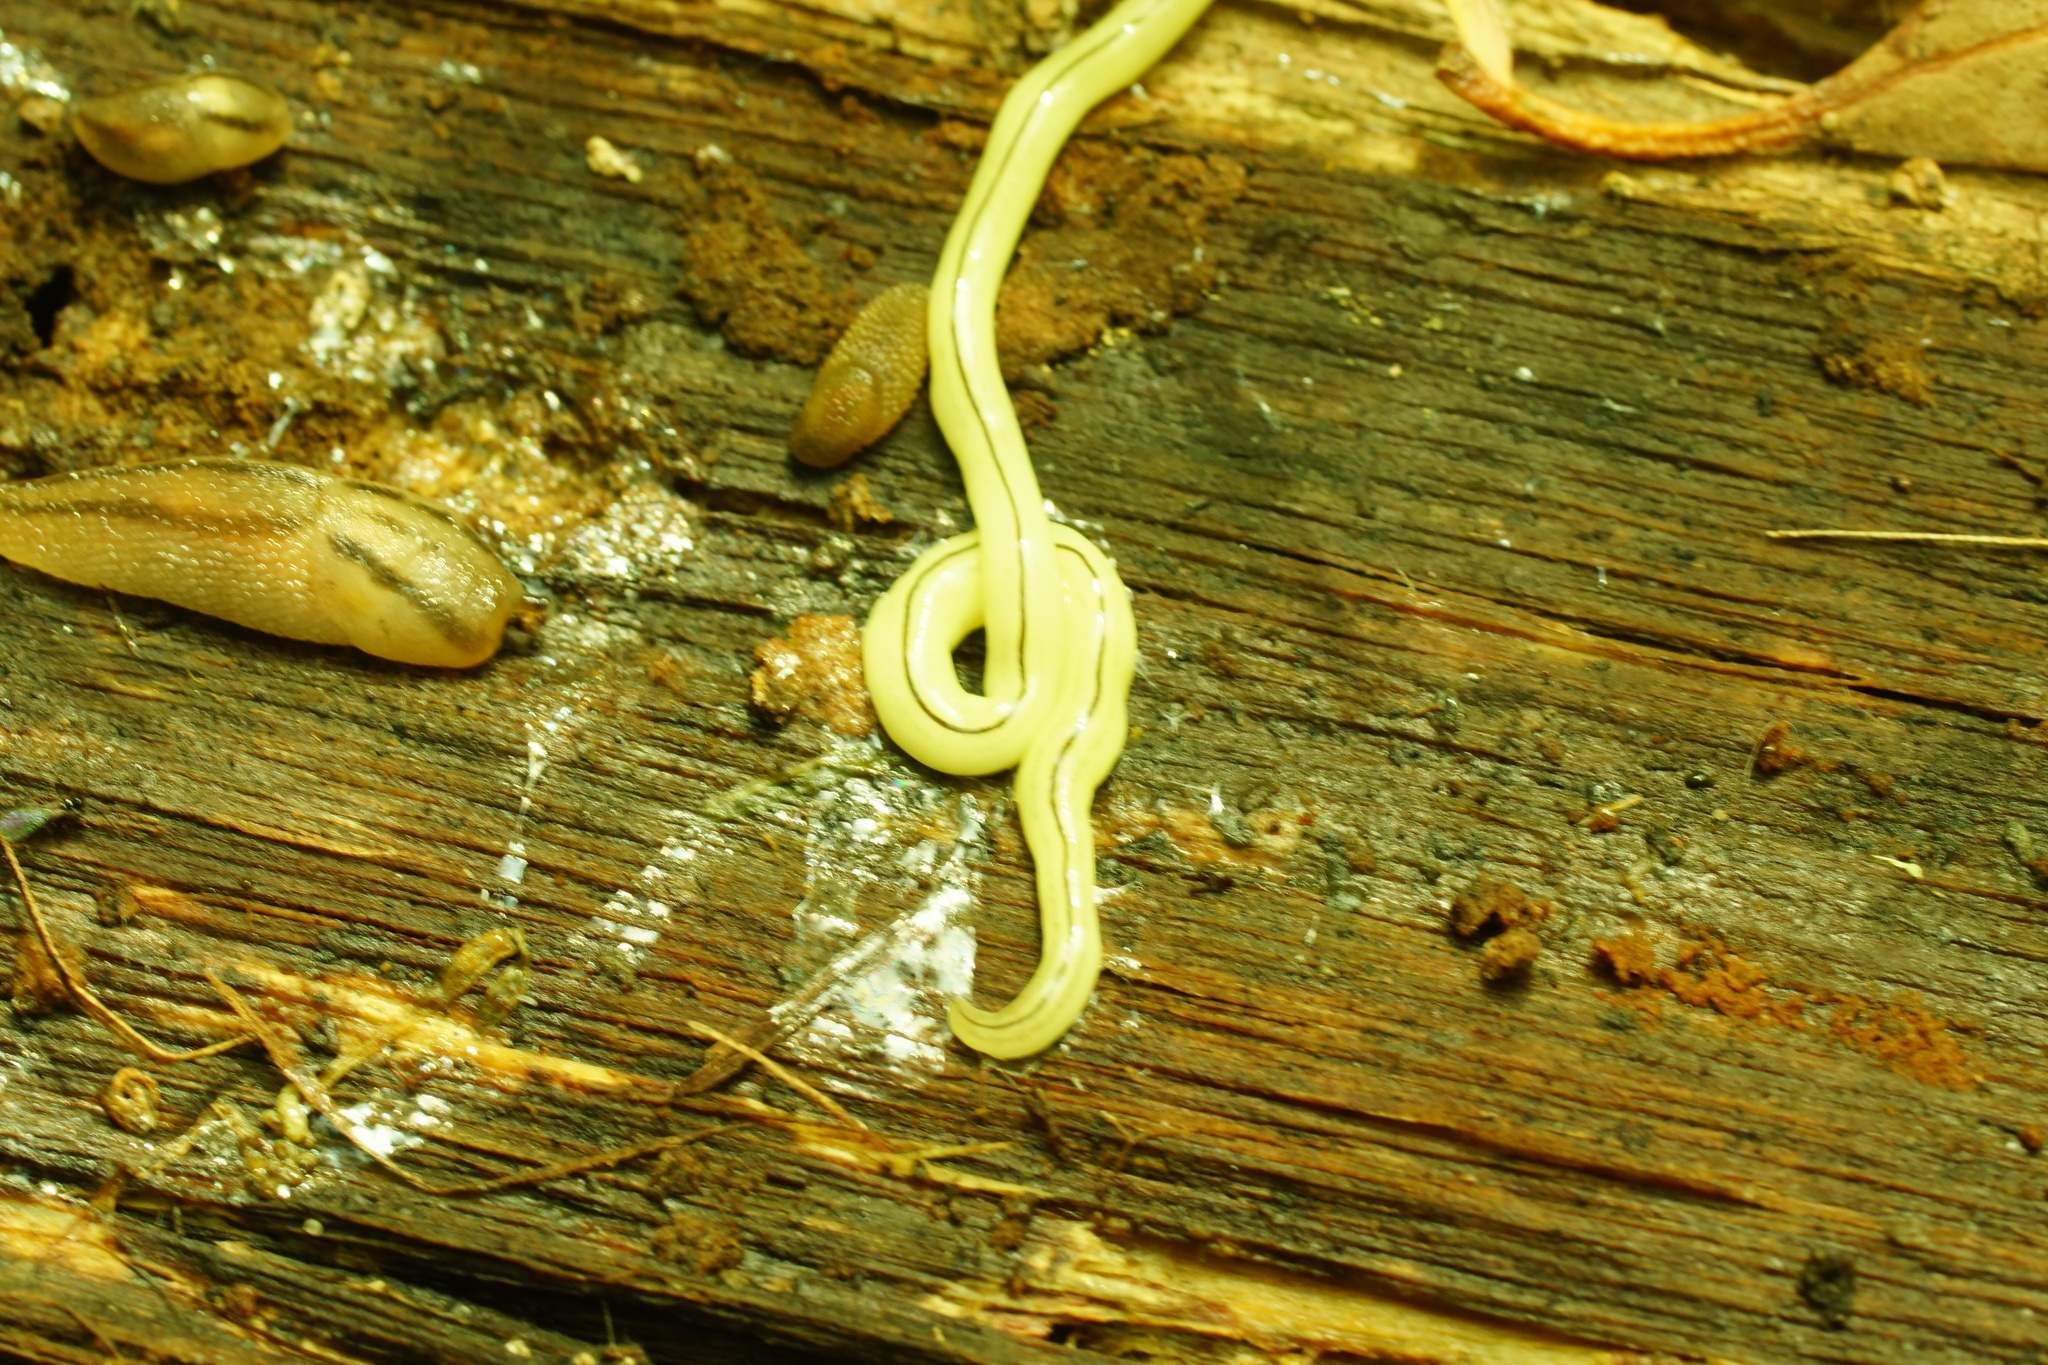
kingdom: Animalia
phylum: Platyhelminthes
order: Tricladida
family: Geoplanidae
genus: Fletchamia
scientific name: Fletchamia mediolineata
